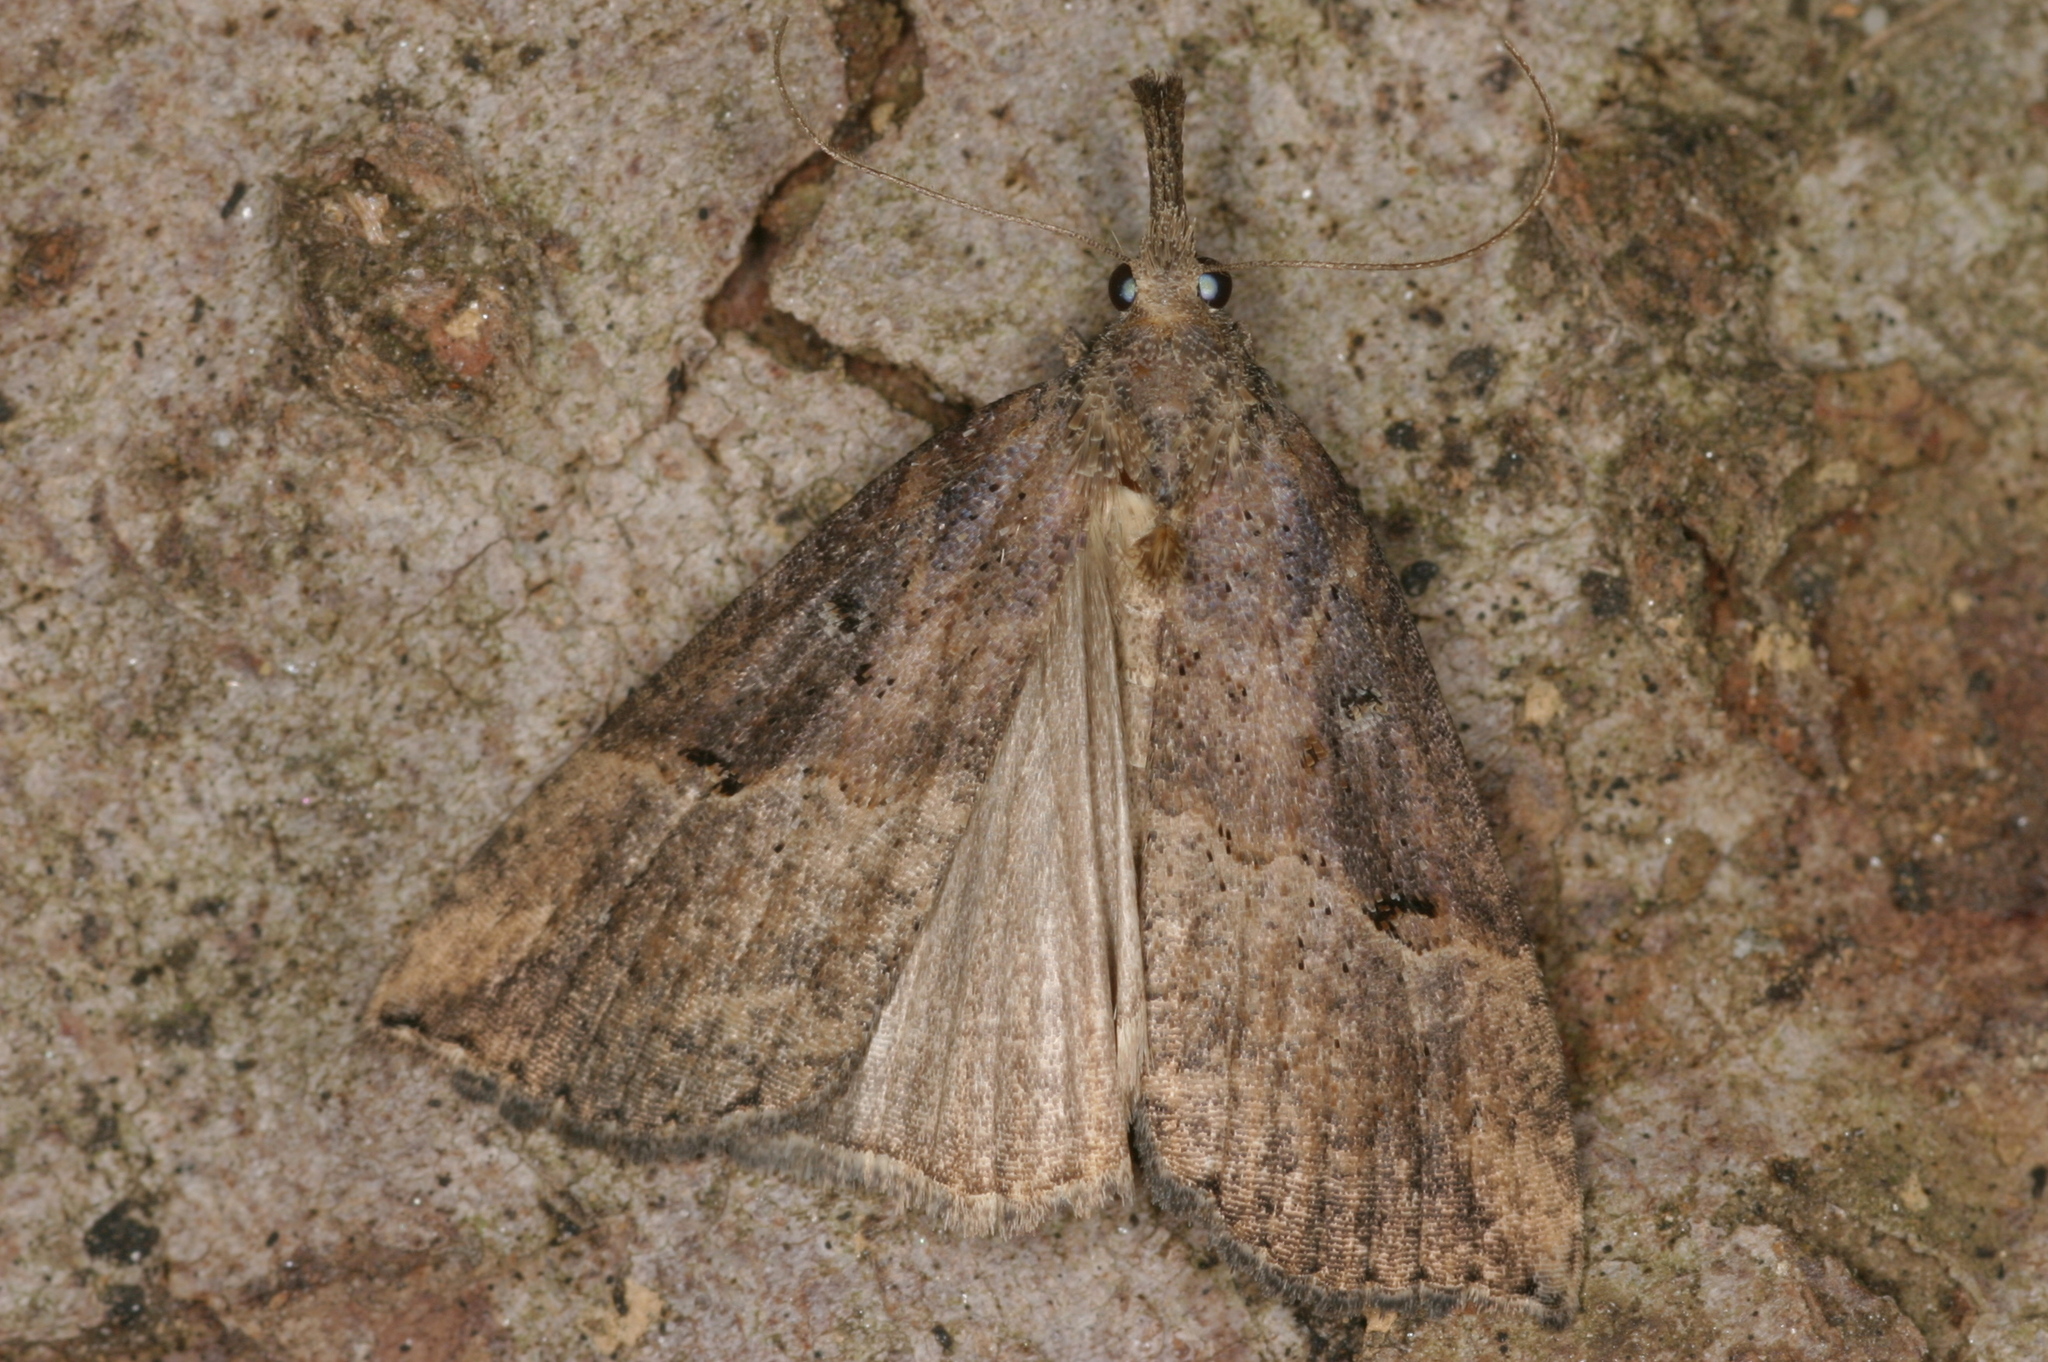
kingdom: Animalia
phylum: Arthropoda
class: Insecta
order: Lepidoptera
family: Erebidae
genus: Hypena
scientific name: Hypena rostralis
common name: Buttoned snout
